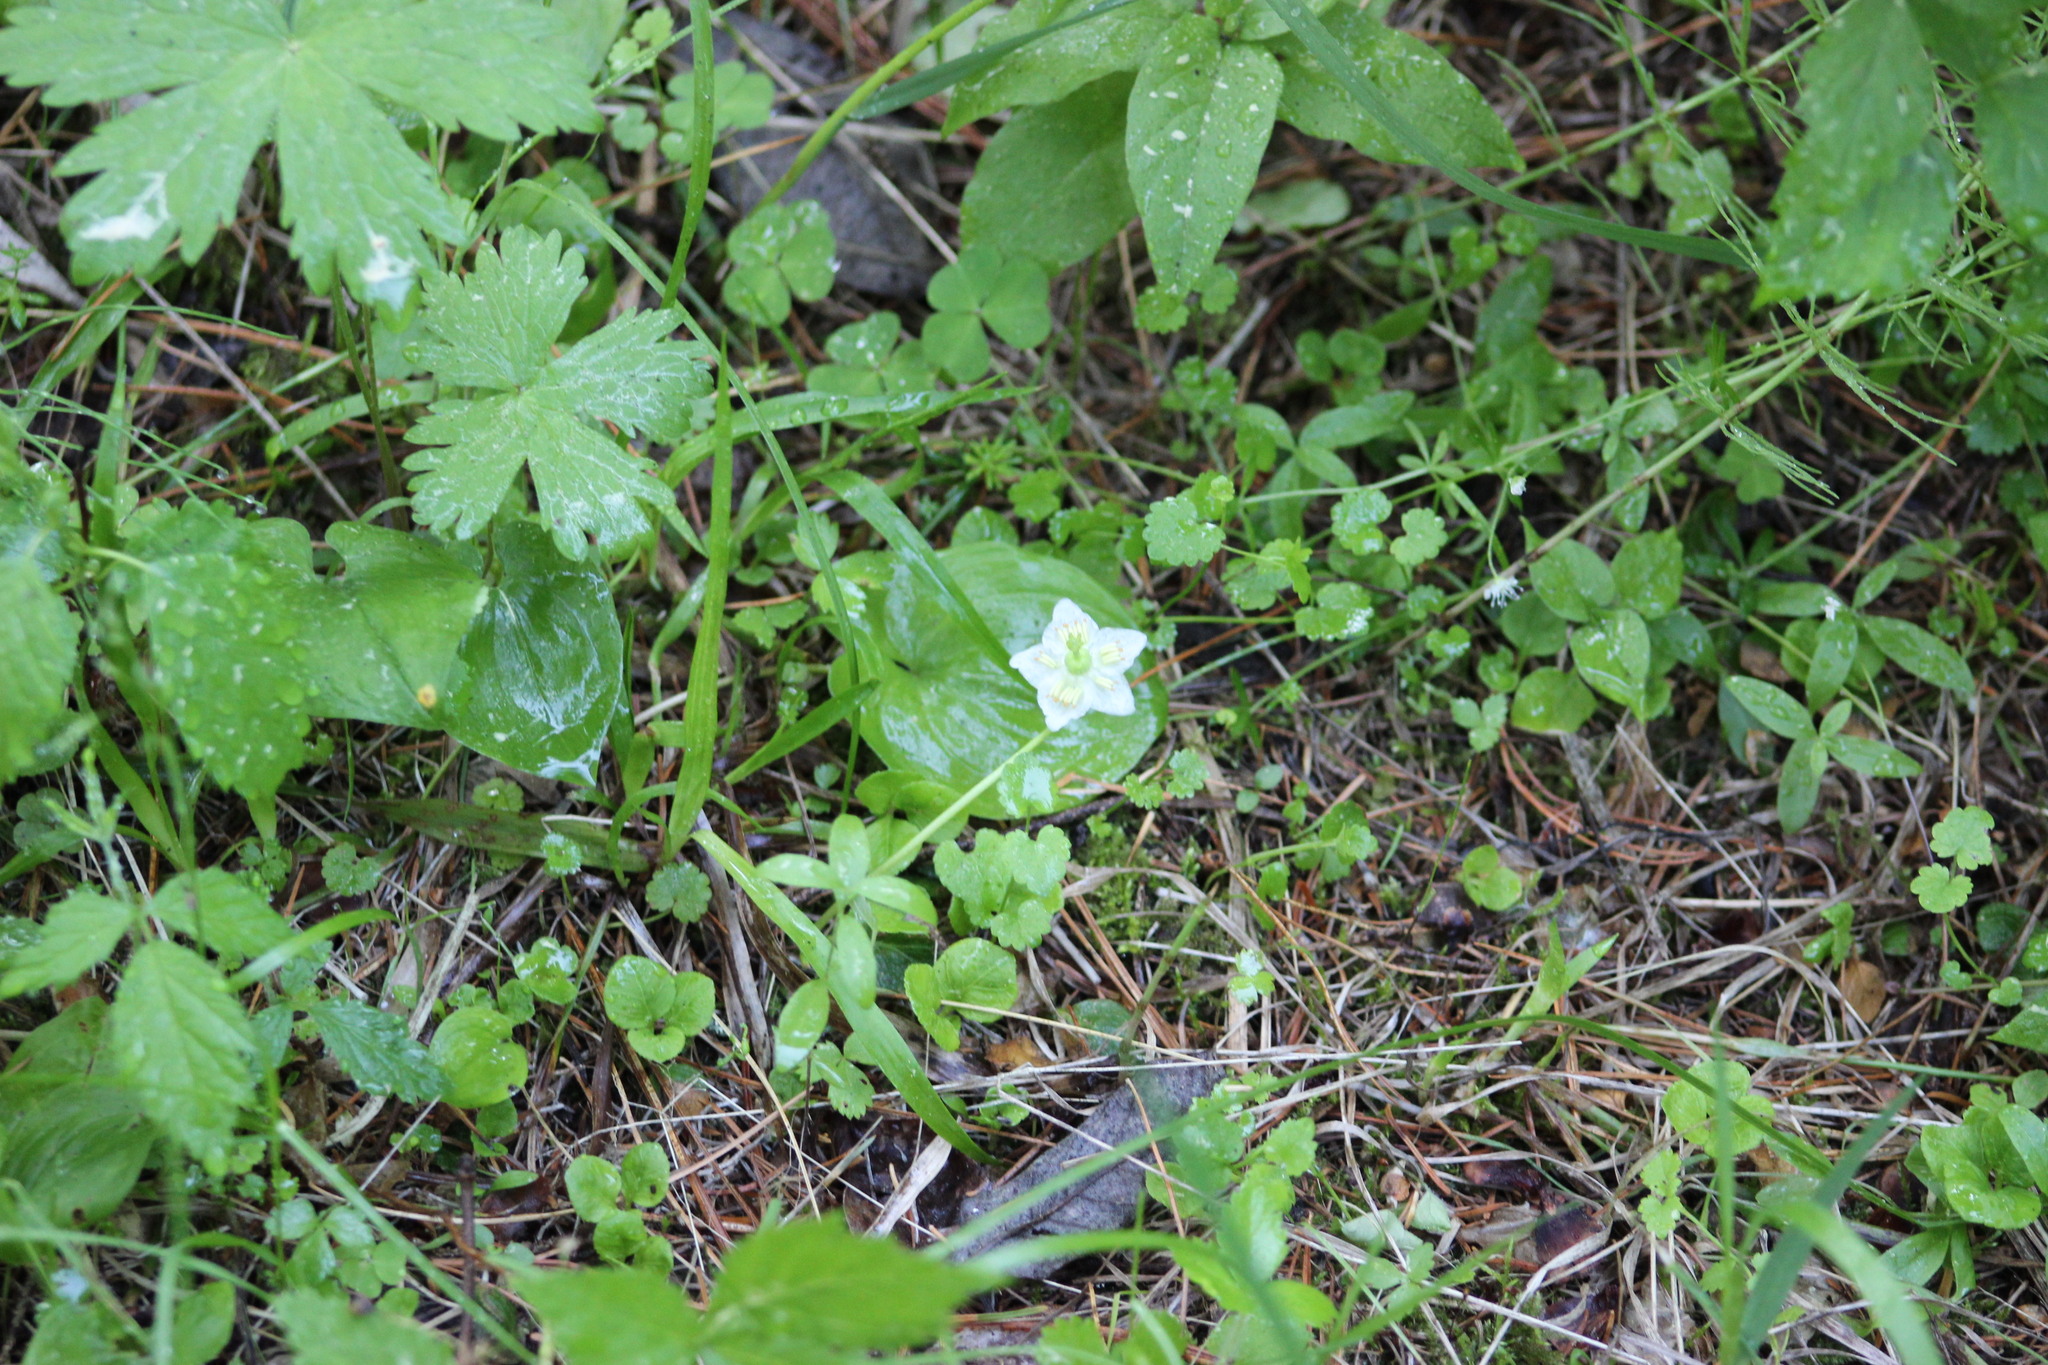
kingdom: Plantae
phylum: Tracheophyta
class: Magnoliopsida
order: Ericales
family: Ericaceae
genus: Moneses
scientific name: Moneses uniflora
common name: One-flowered wintergreen
